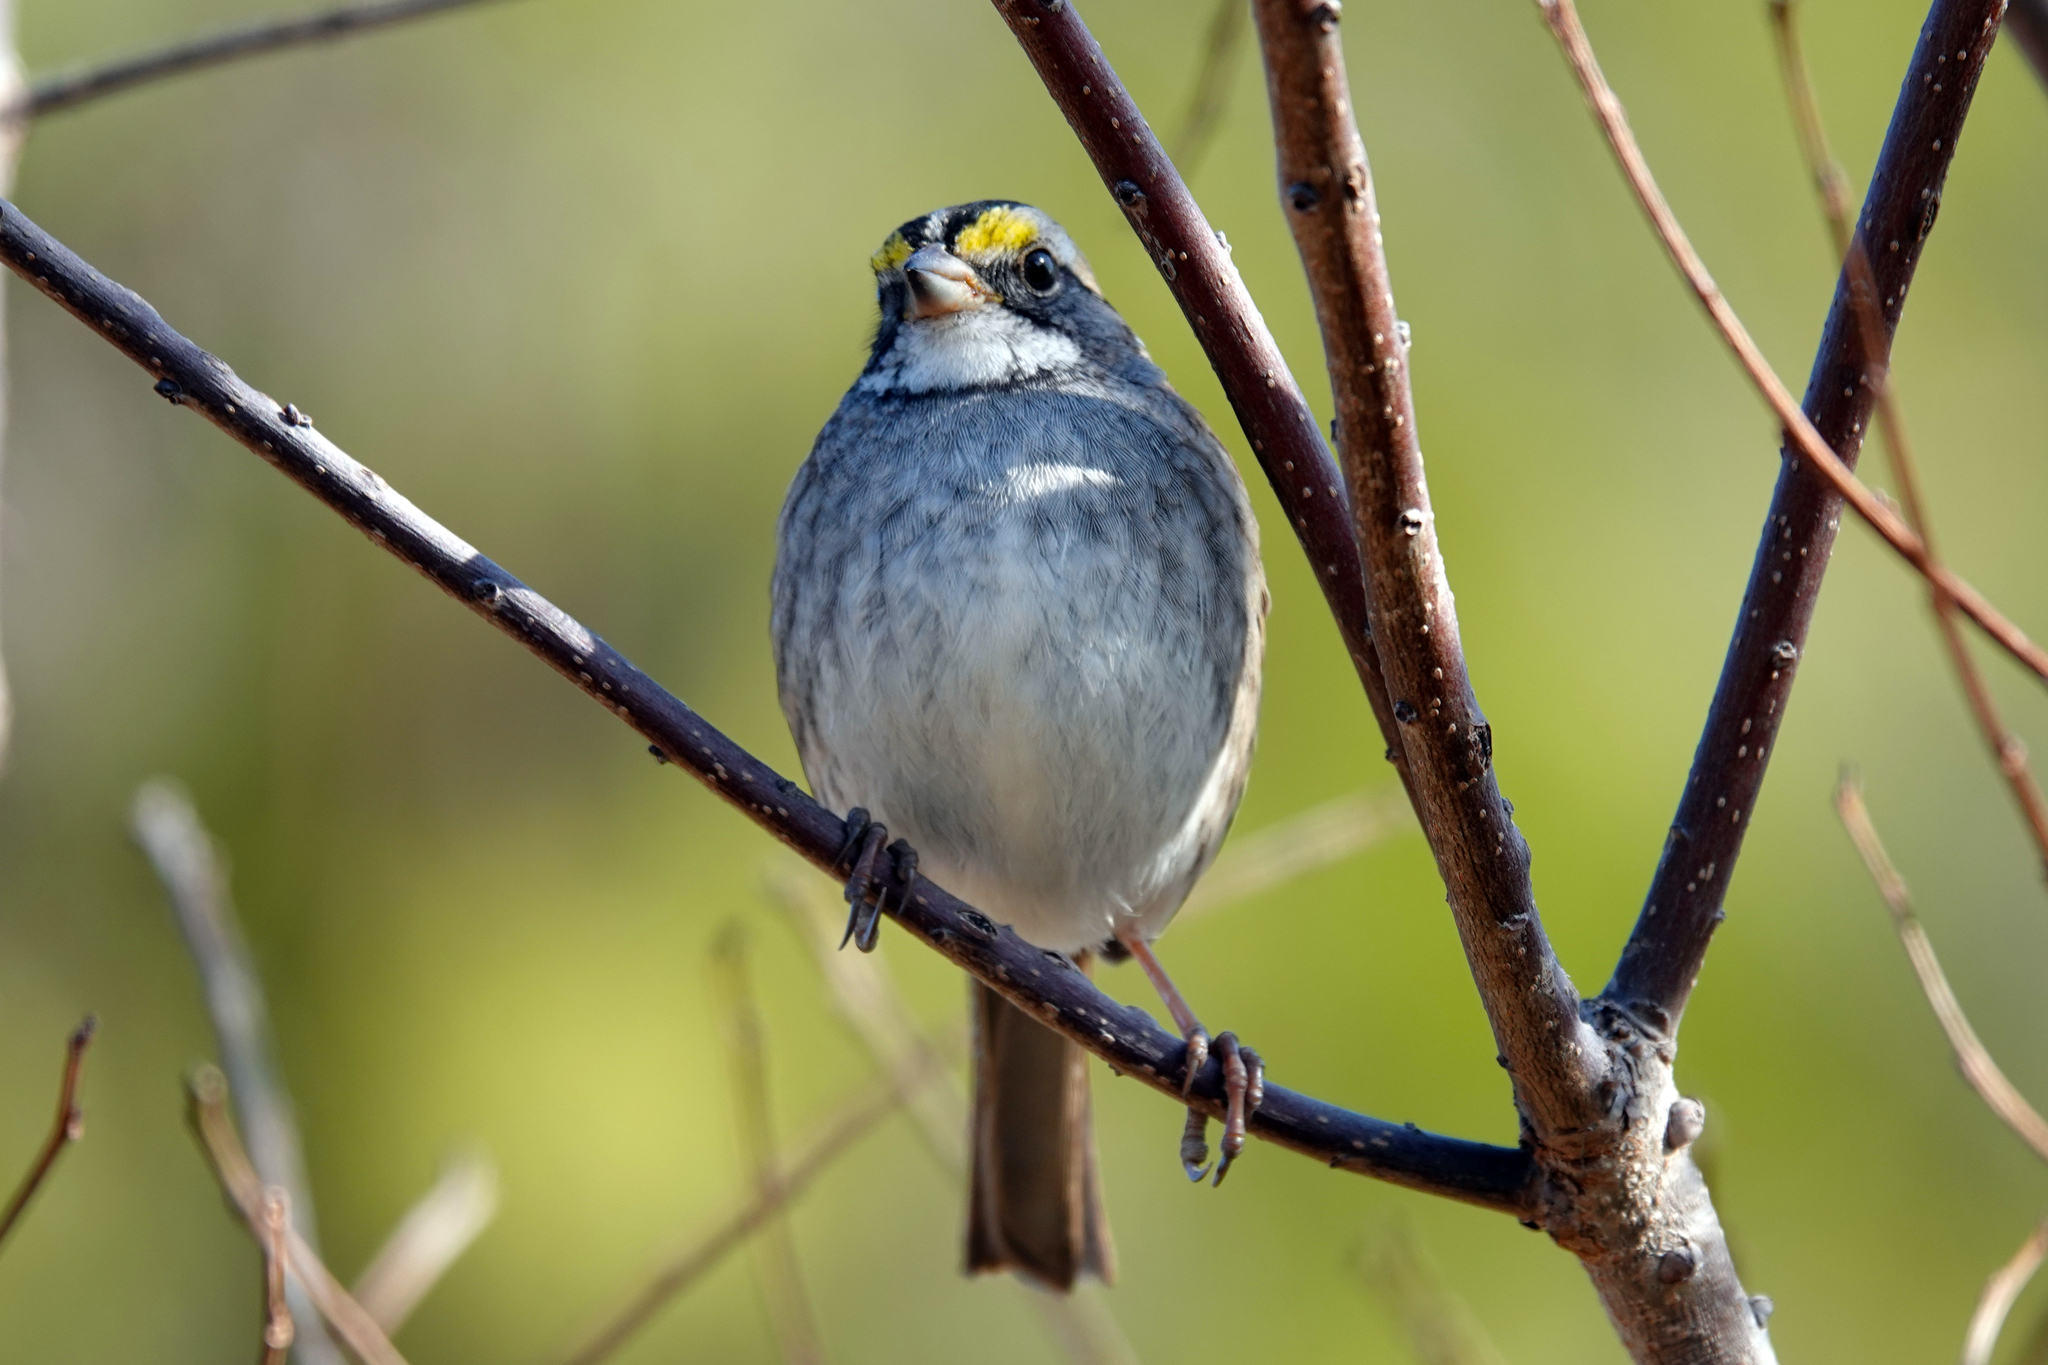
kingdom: Animalia
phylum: Chordata
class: Aves
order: Passeriformes
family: Passerellidae
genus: Zonotrichia
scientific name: Zonotrichia albicollis
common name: White-throated sparrow
